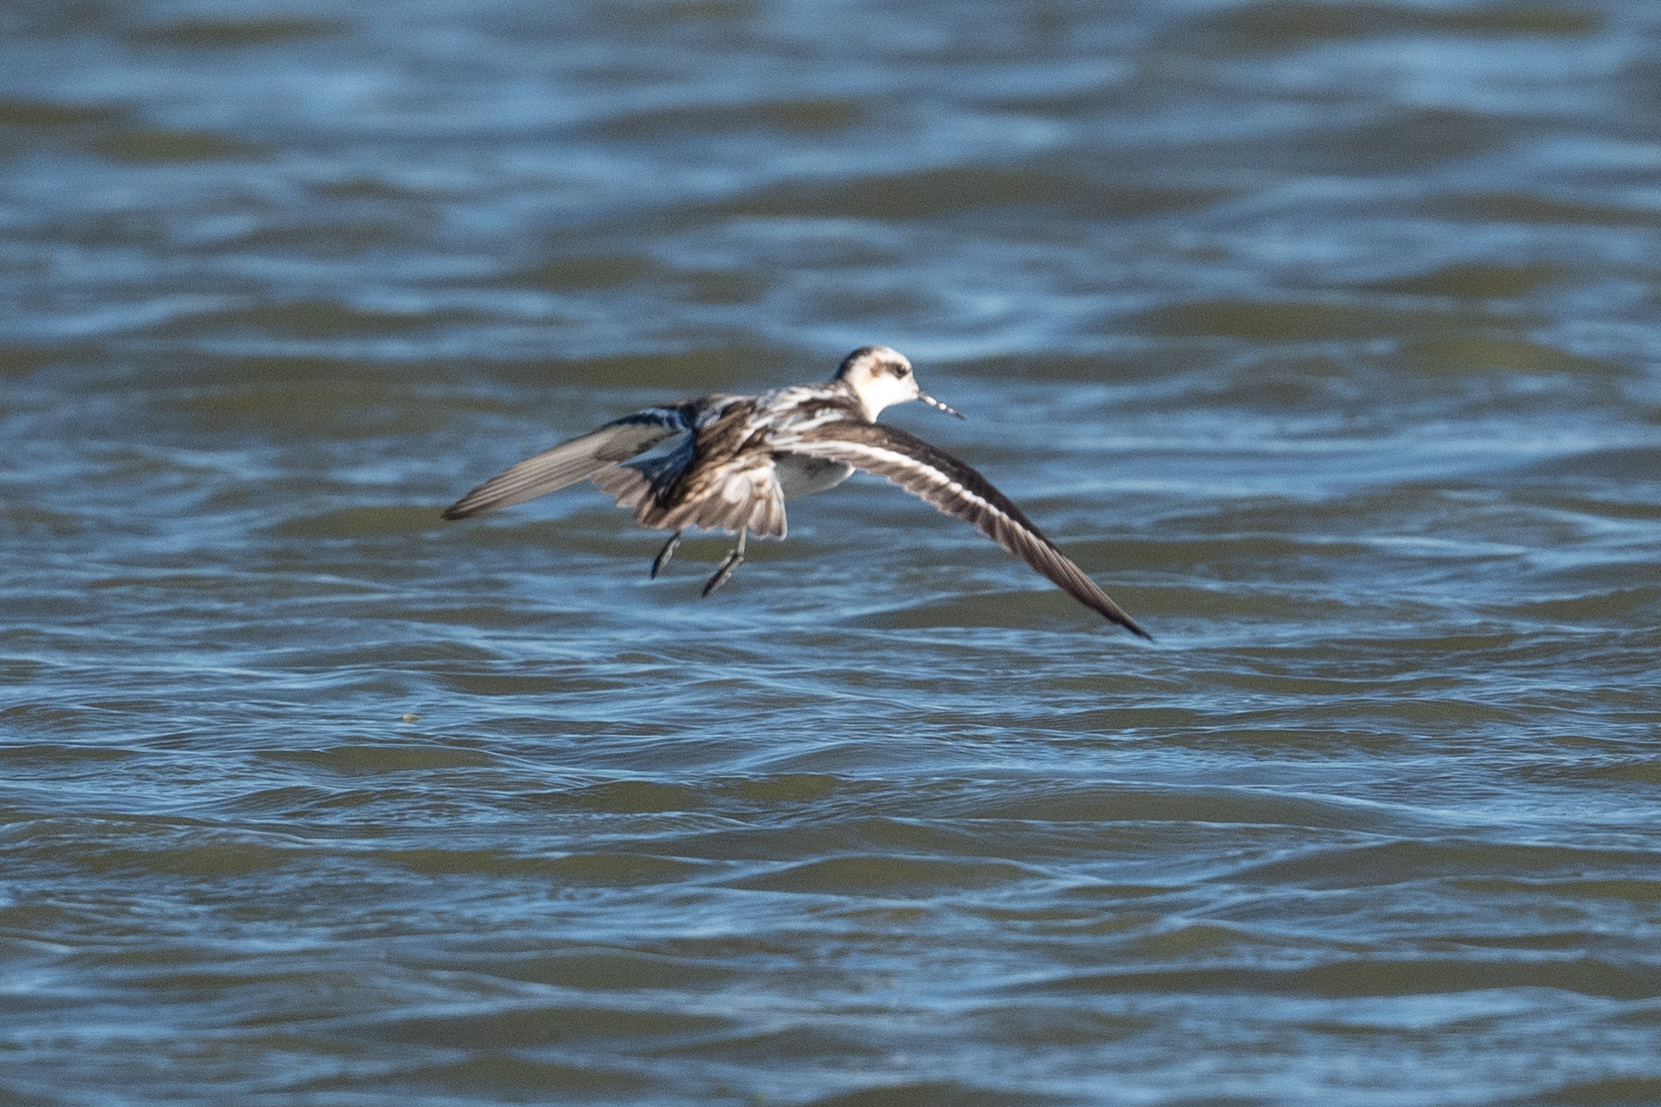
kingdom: Animalia
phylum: Chordata
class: Aves
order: Charadriiformes
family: Scolopacidae
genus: Phalaropus
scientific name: Phalaropus lobatus
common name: Red-necked phalarope
